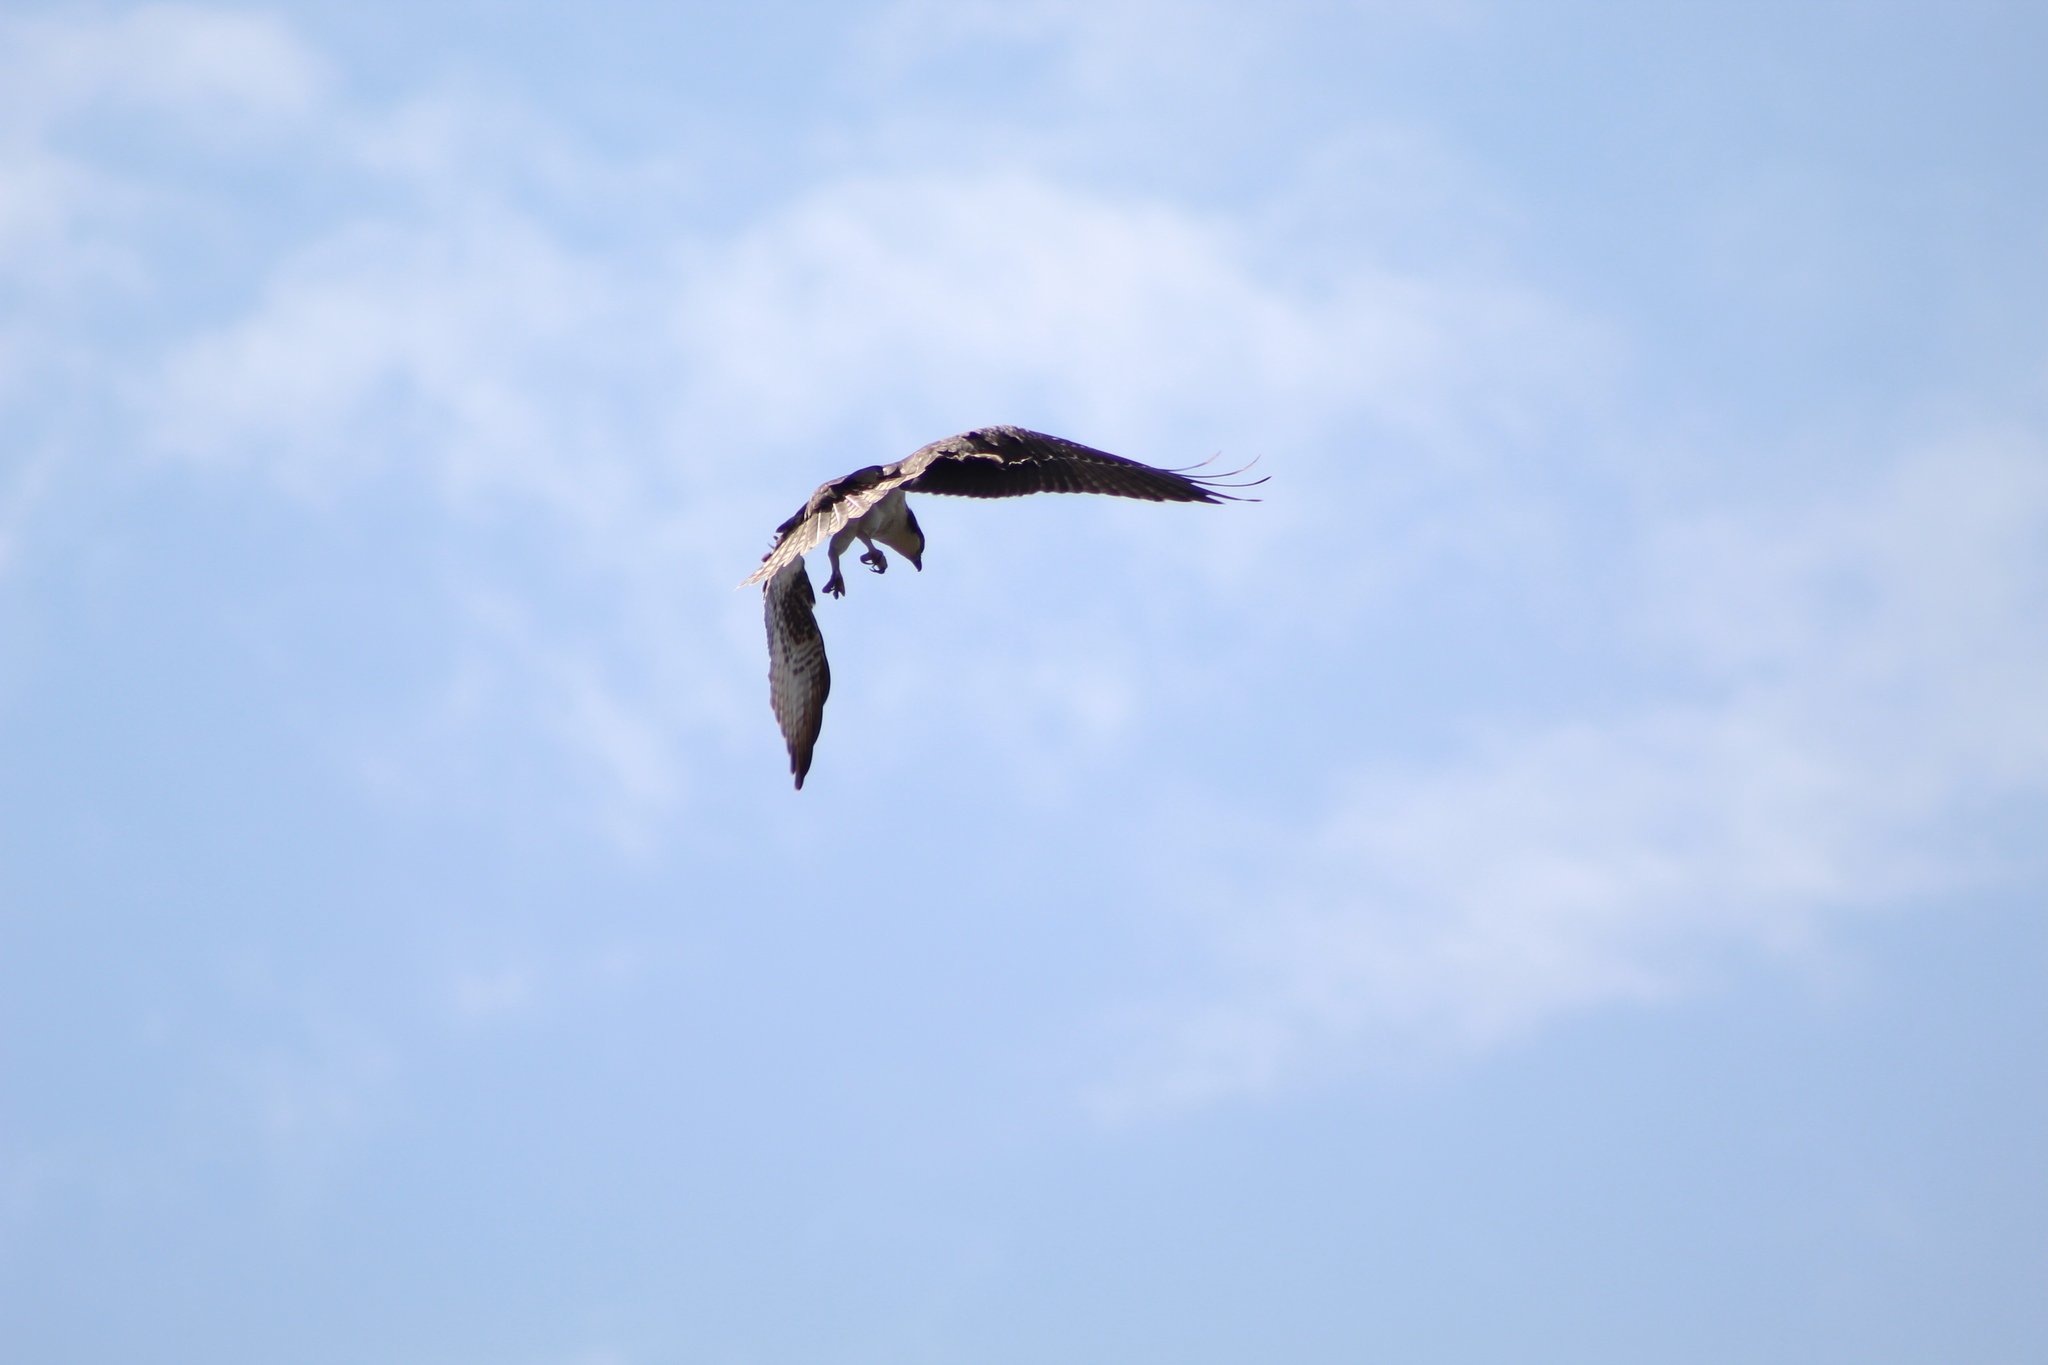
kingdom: Animalia
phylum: Chordata
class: Aves
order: Accipitriformes
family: Pandionidae
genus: Pandion
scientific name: Pandion haliaetus
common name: Osprey
